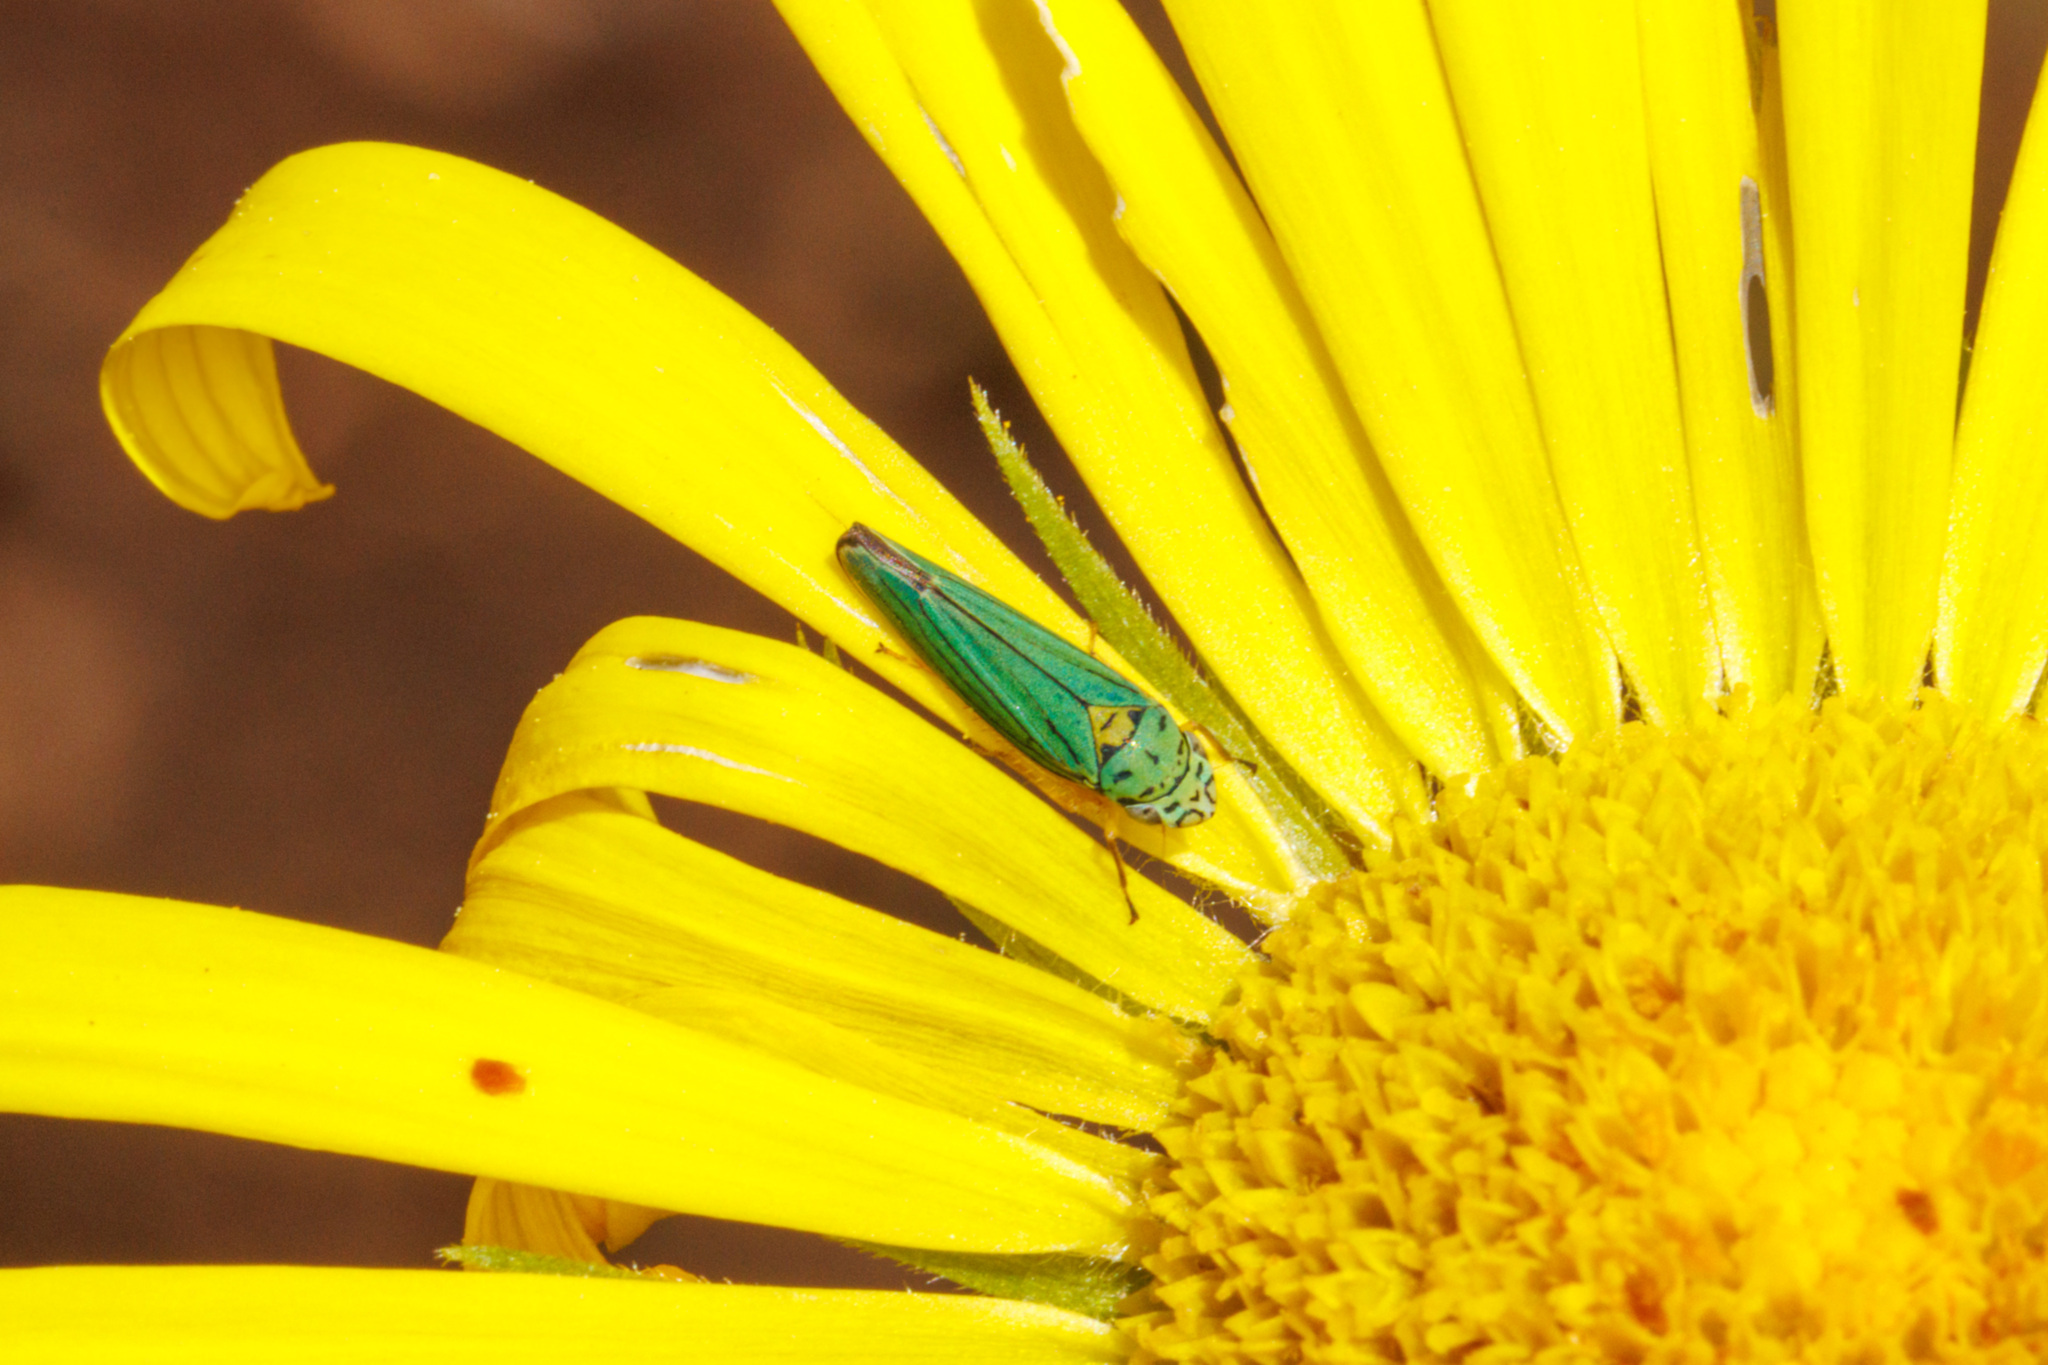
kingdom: Animalia
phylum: Arthropoda
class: Insecta
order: Hemiptera
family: Cicadellidae
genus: Graphocephala
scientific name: Graphocephala atropunctata
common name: Blue-green sharpshooter
